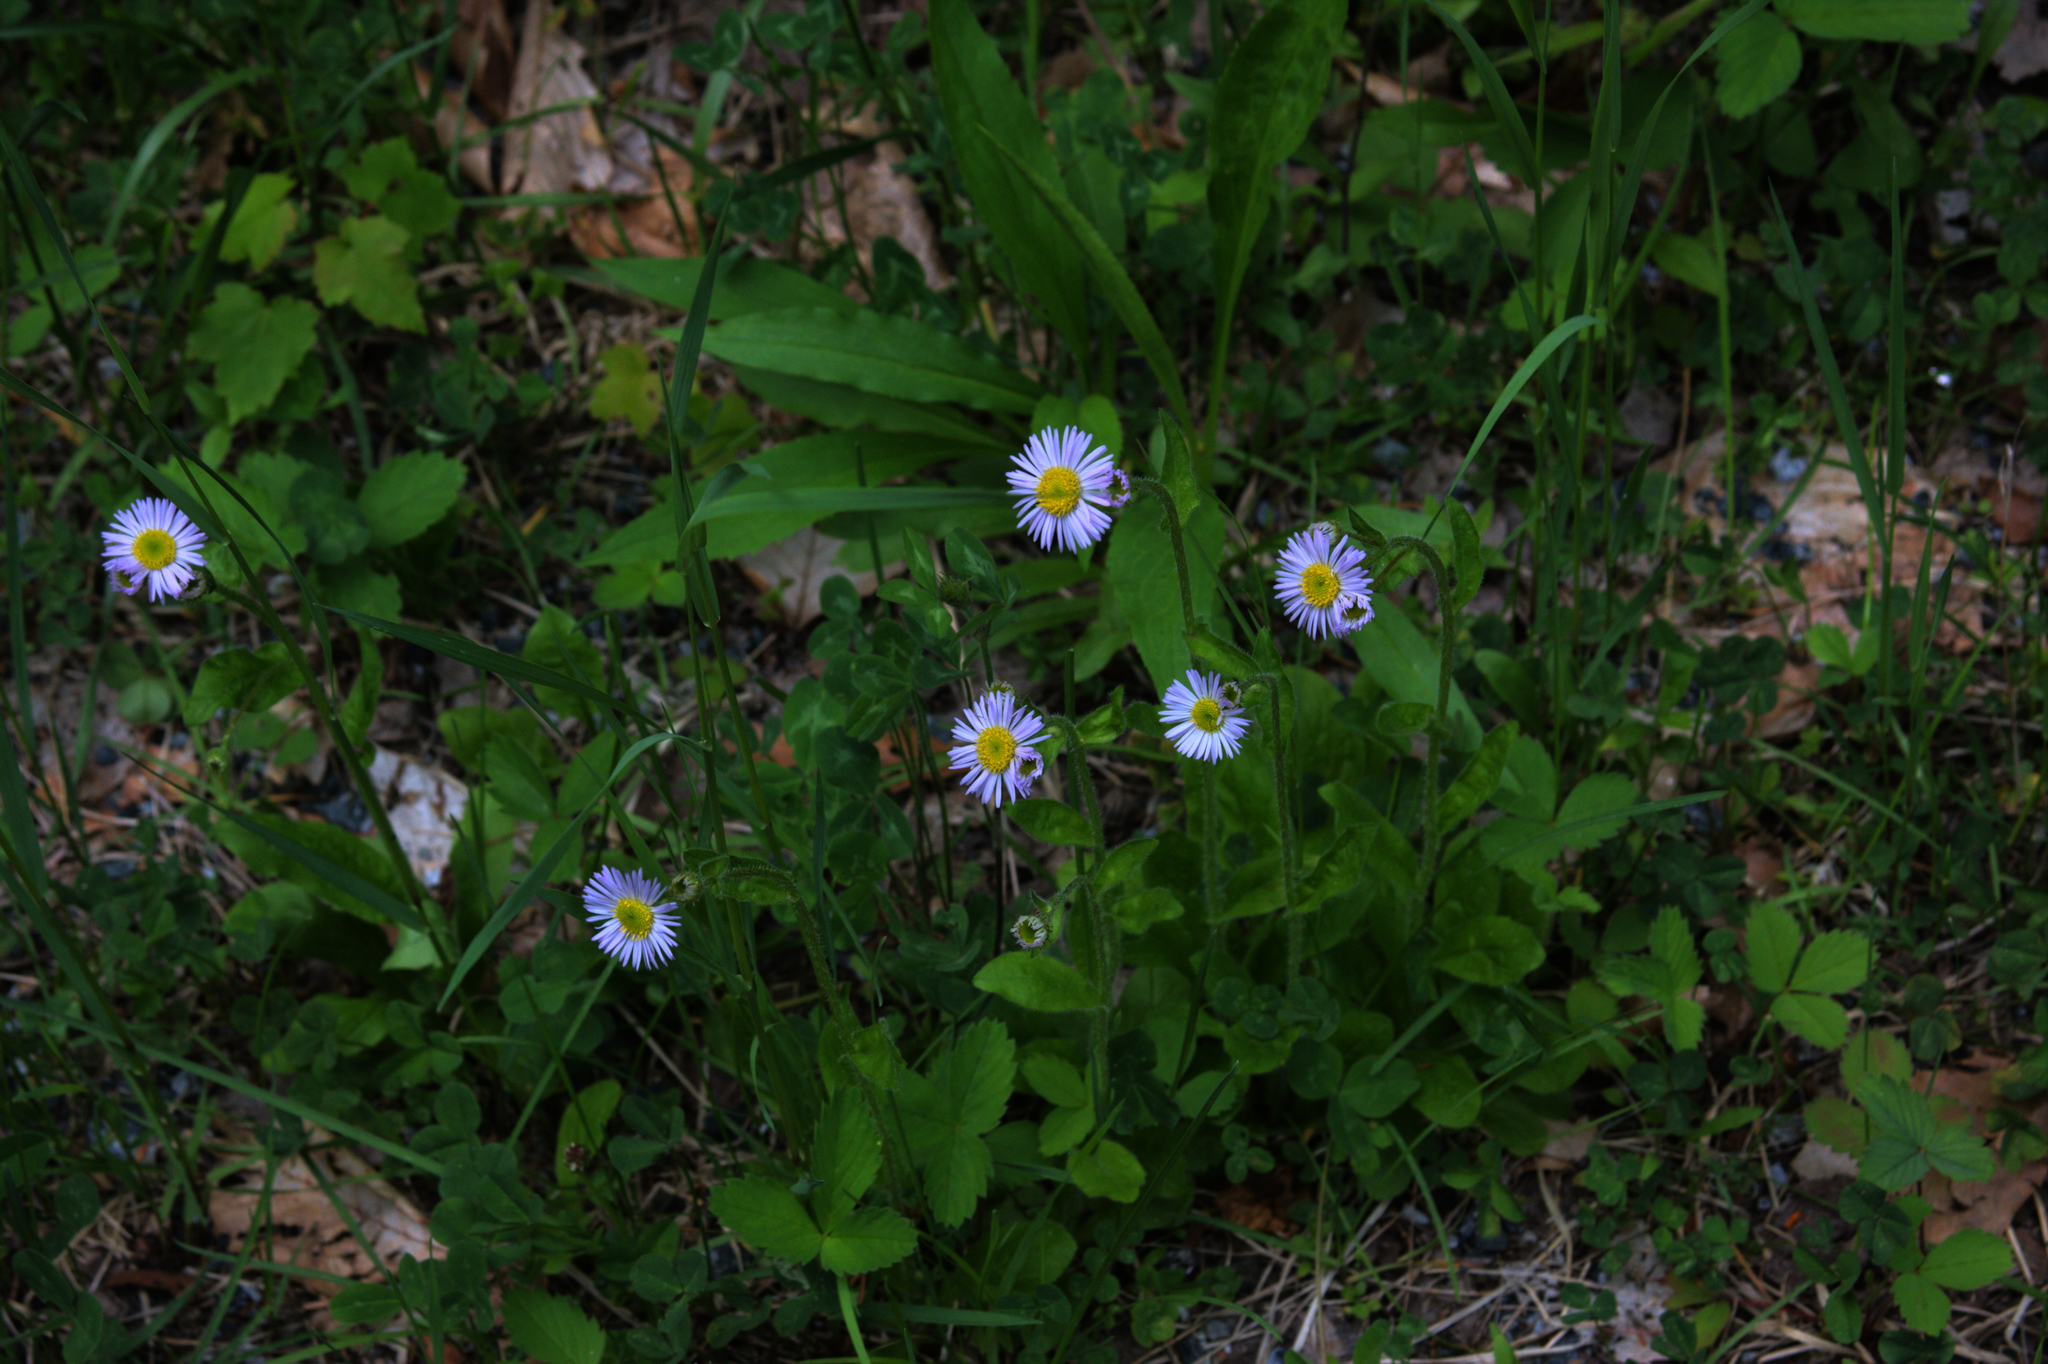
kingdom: Plantae
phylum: Tracheophyta
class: Magnoliopsida
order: Asterales
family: Asteraceae
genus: Erigeron
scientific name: Erigeron pulchellus
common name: Hairy fleabane
